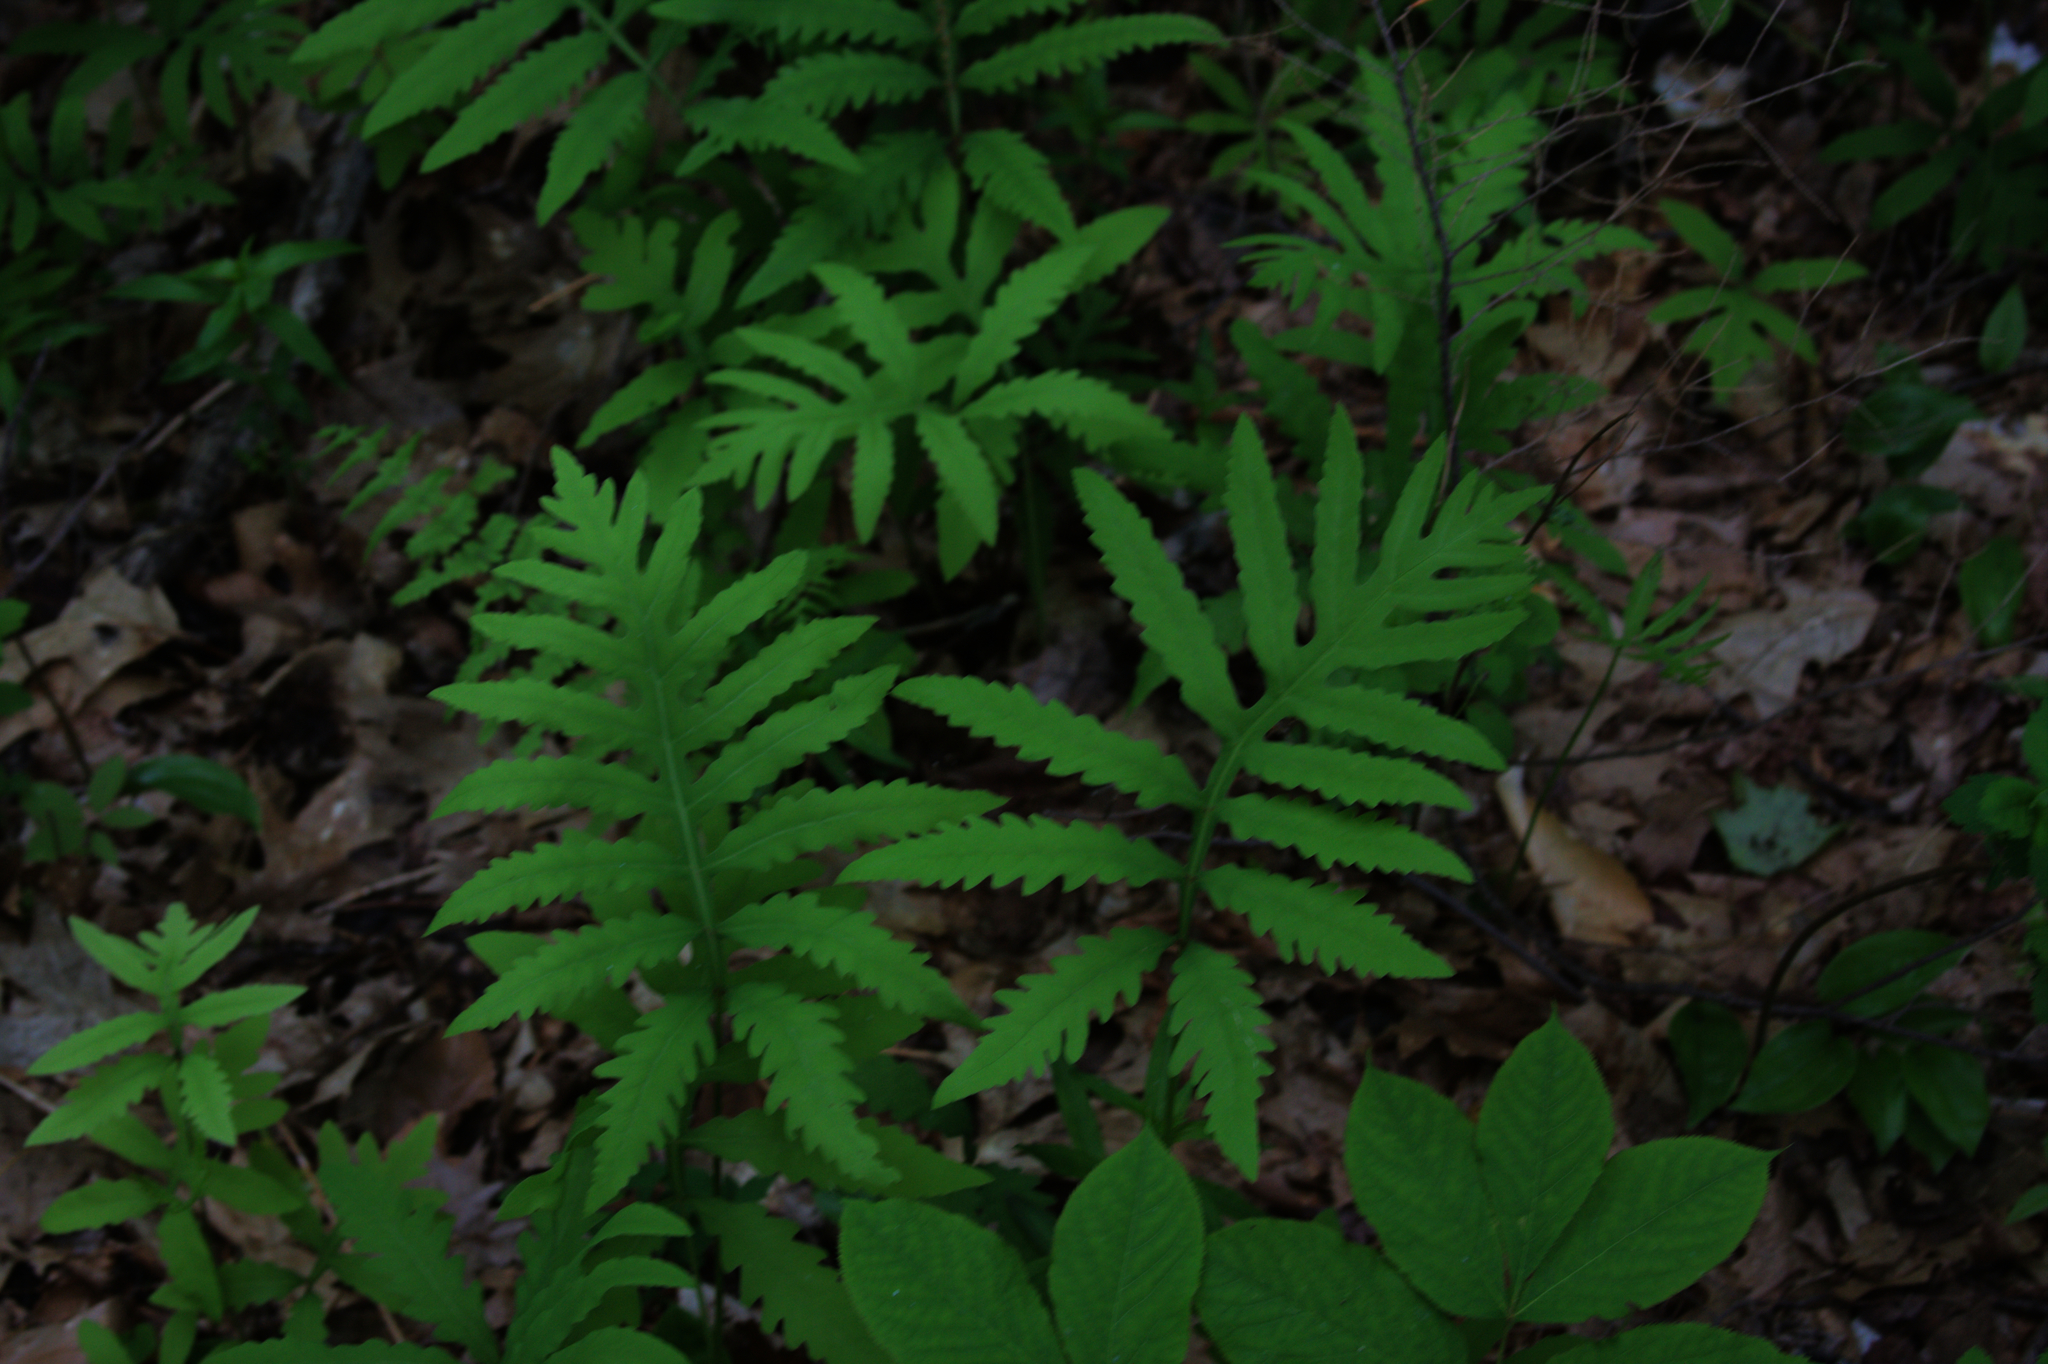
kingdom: Plantae
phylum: Tracheophyta
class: Polypodiopsida
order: Polypodiales
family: Onocleaceae
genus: Onoclea
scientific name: Onoclea sensibilis
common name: Sensitive fern
